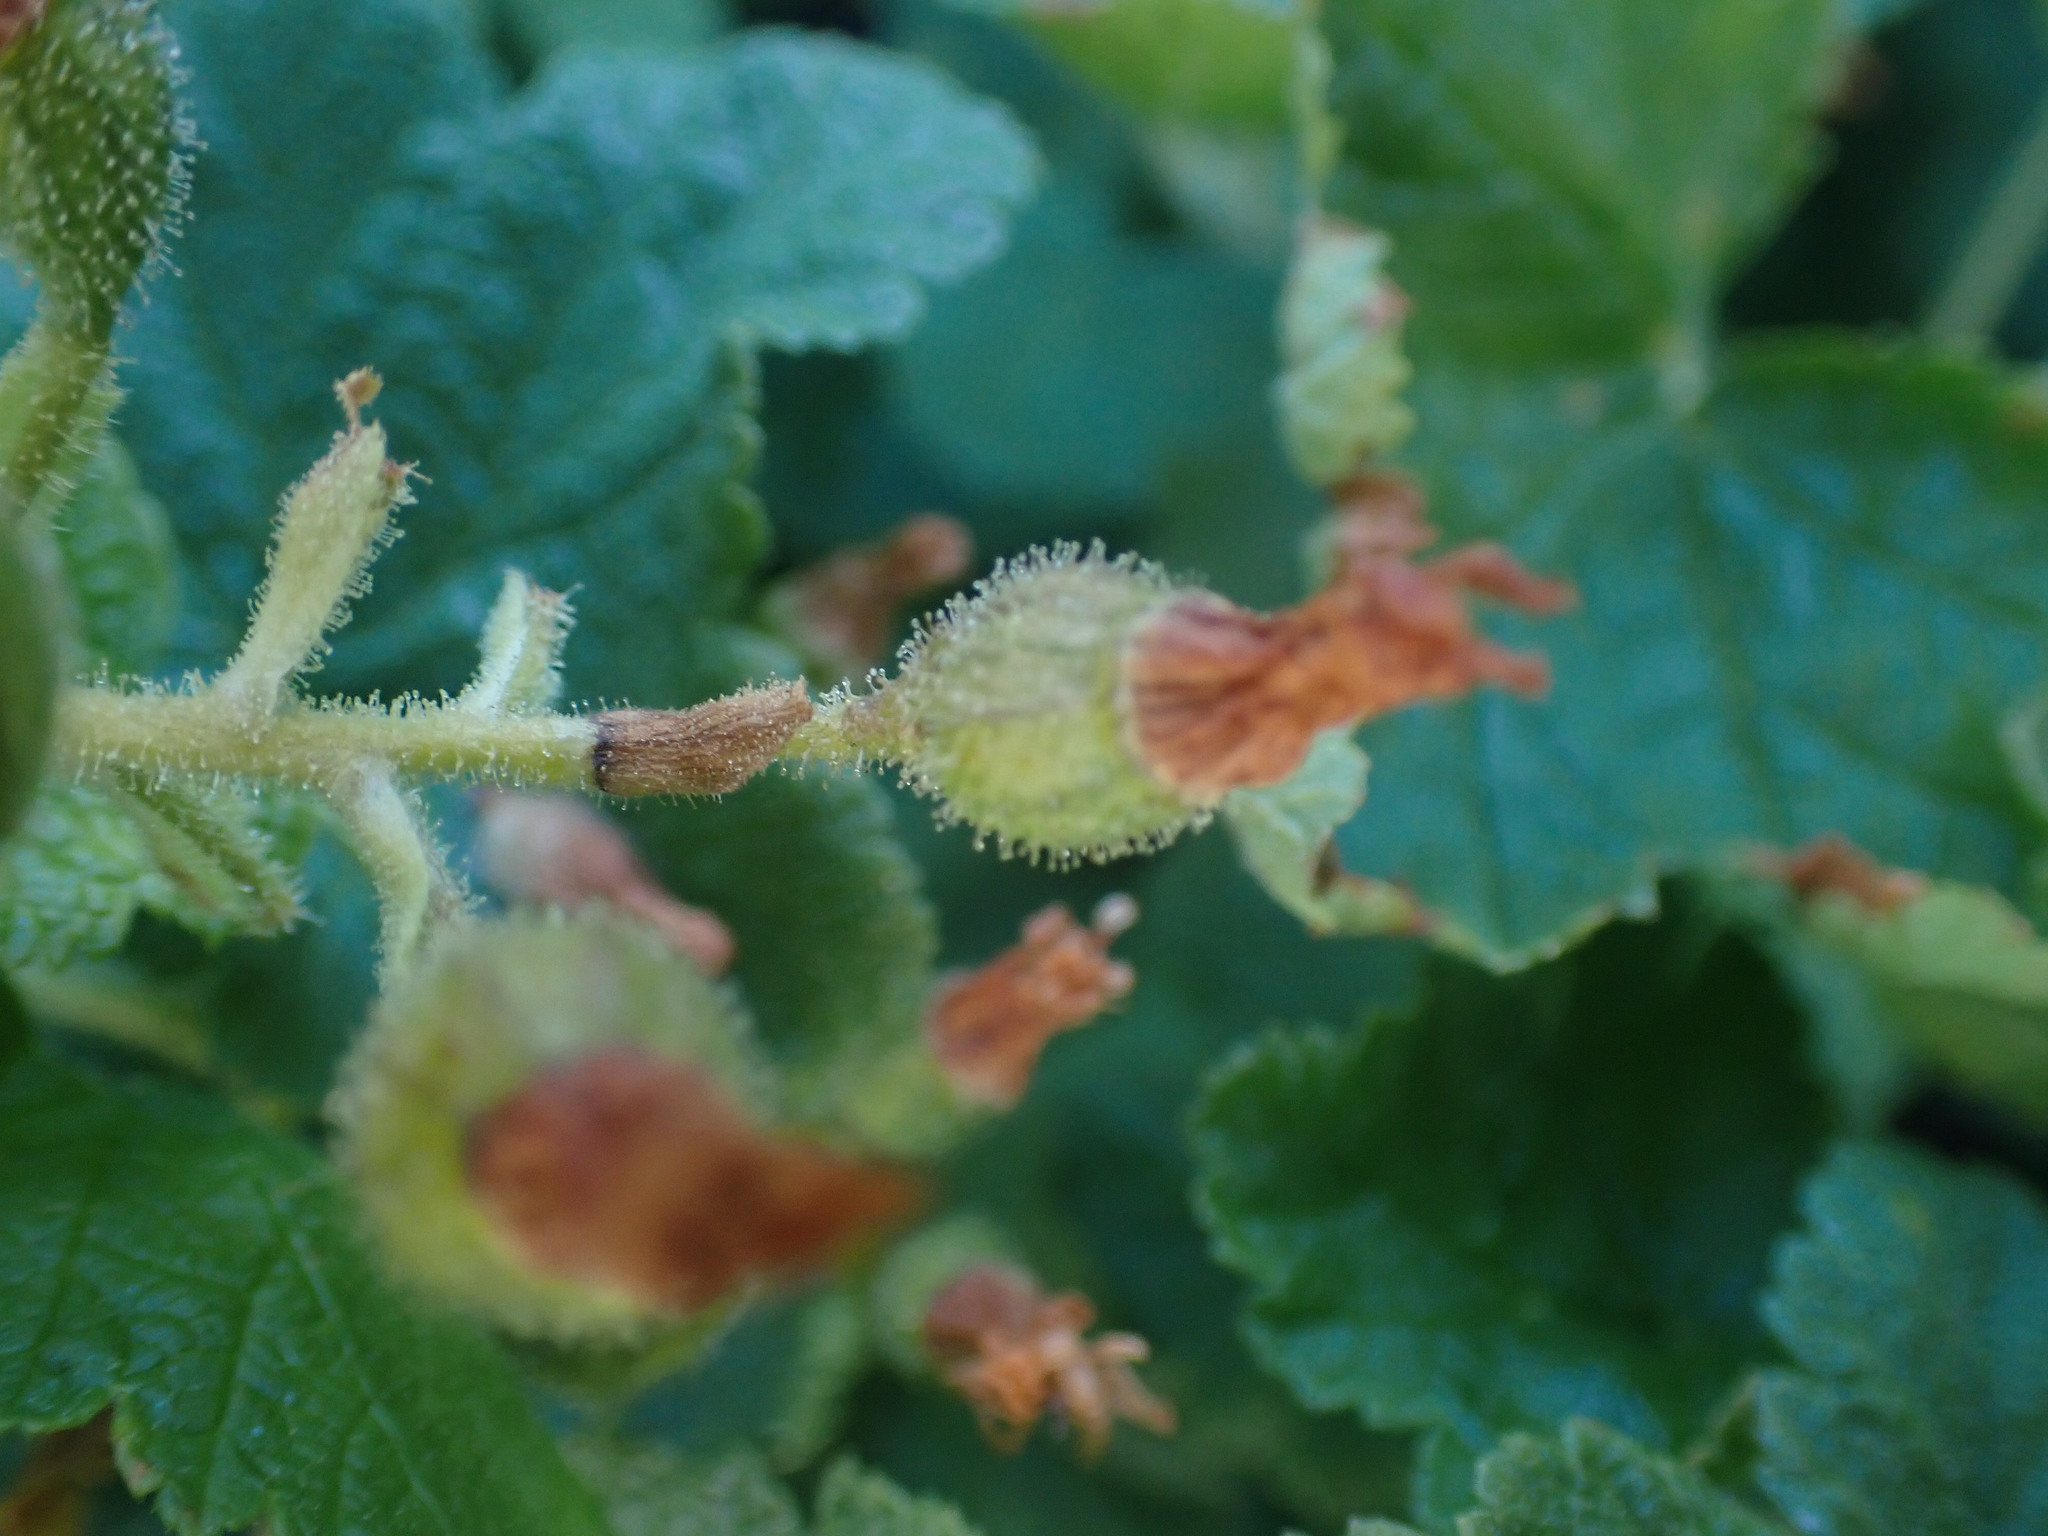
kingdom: Plantae
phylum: Tracheophyta
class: Magnoliopsida
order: Saxifragales
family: Grossulariaceae
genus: Ribes
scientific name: Ribes viscosissimum
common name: Sticky currant
